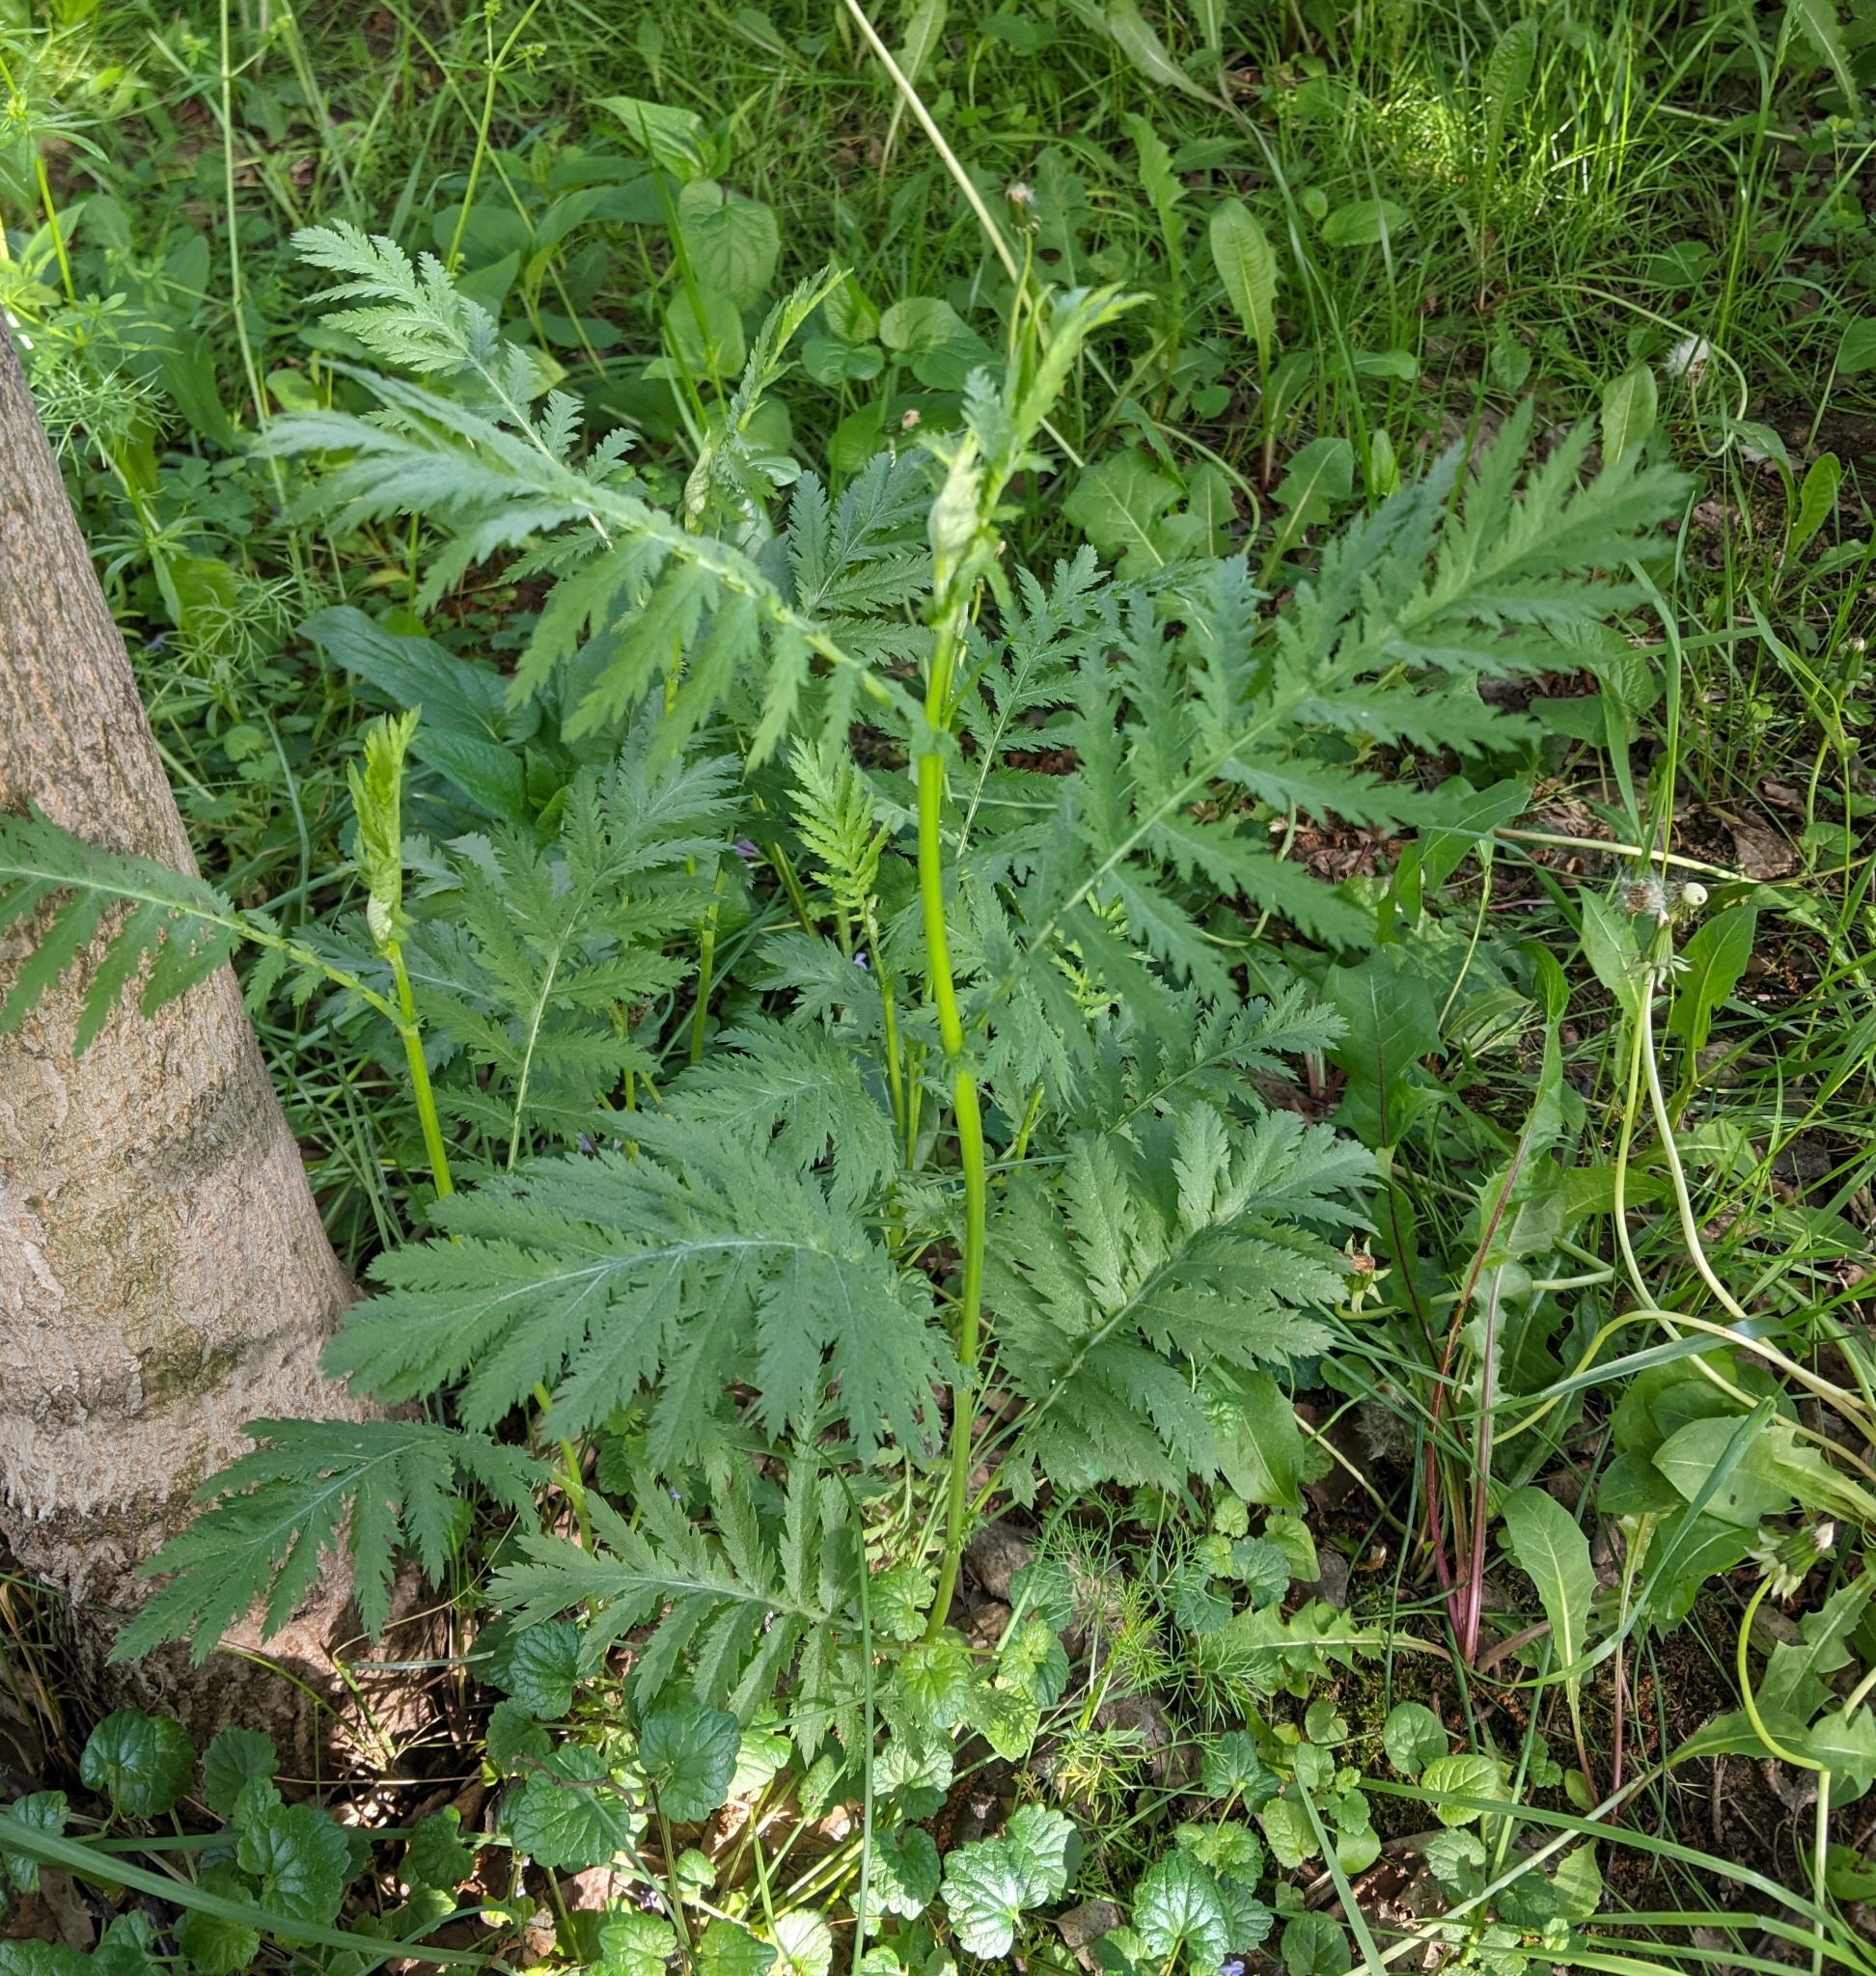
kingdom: Plantae
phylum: Tracheophyta
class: Magnoliopsida
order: Asterales
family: Asteraceae
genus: Tanacetum
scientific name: Tanacetum vulgare
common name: Common tansy
